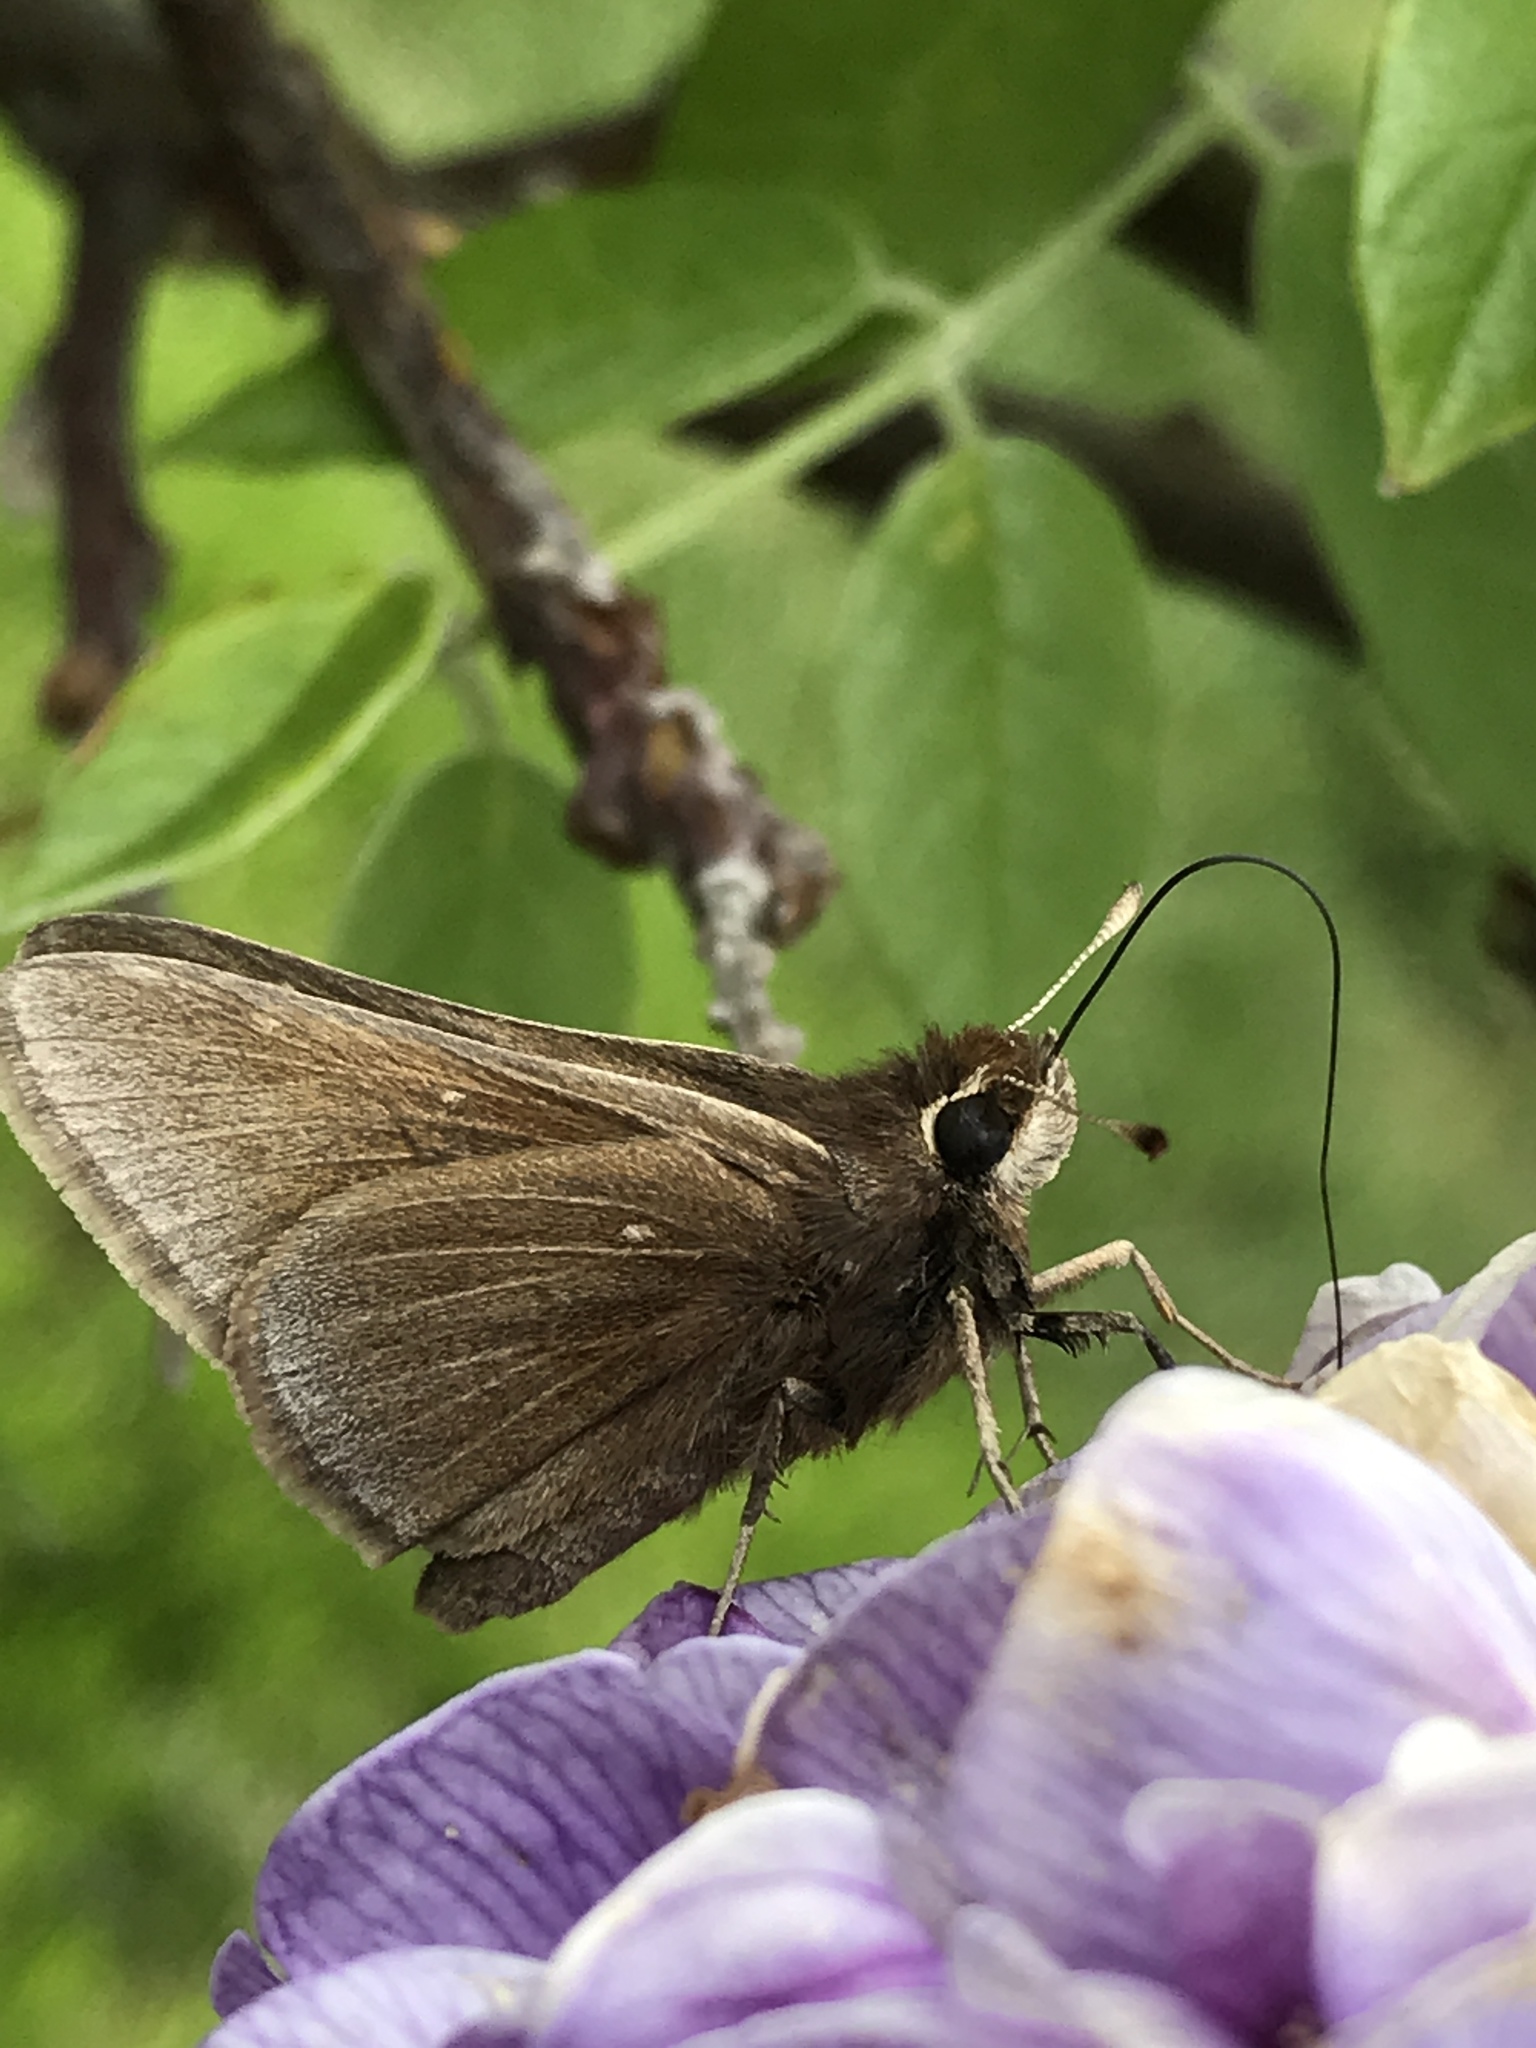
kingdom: Animalia
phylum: Arthropoda
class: Insecta
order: Lepidoptera
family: Hesperiidae
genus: Atrytonopsis
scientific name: Atrytonopsis hianna
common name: Dusted skipper
